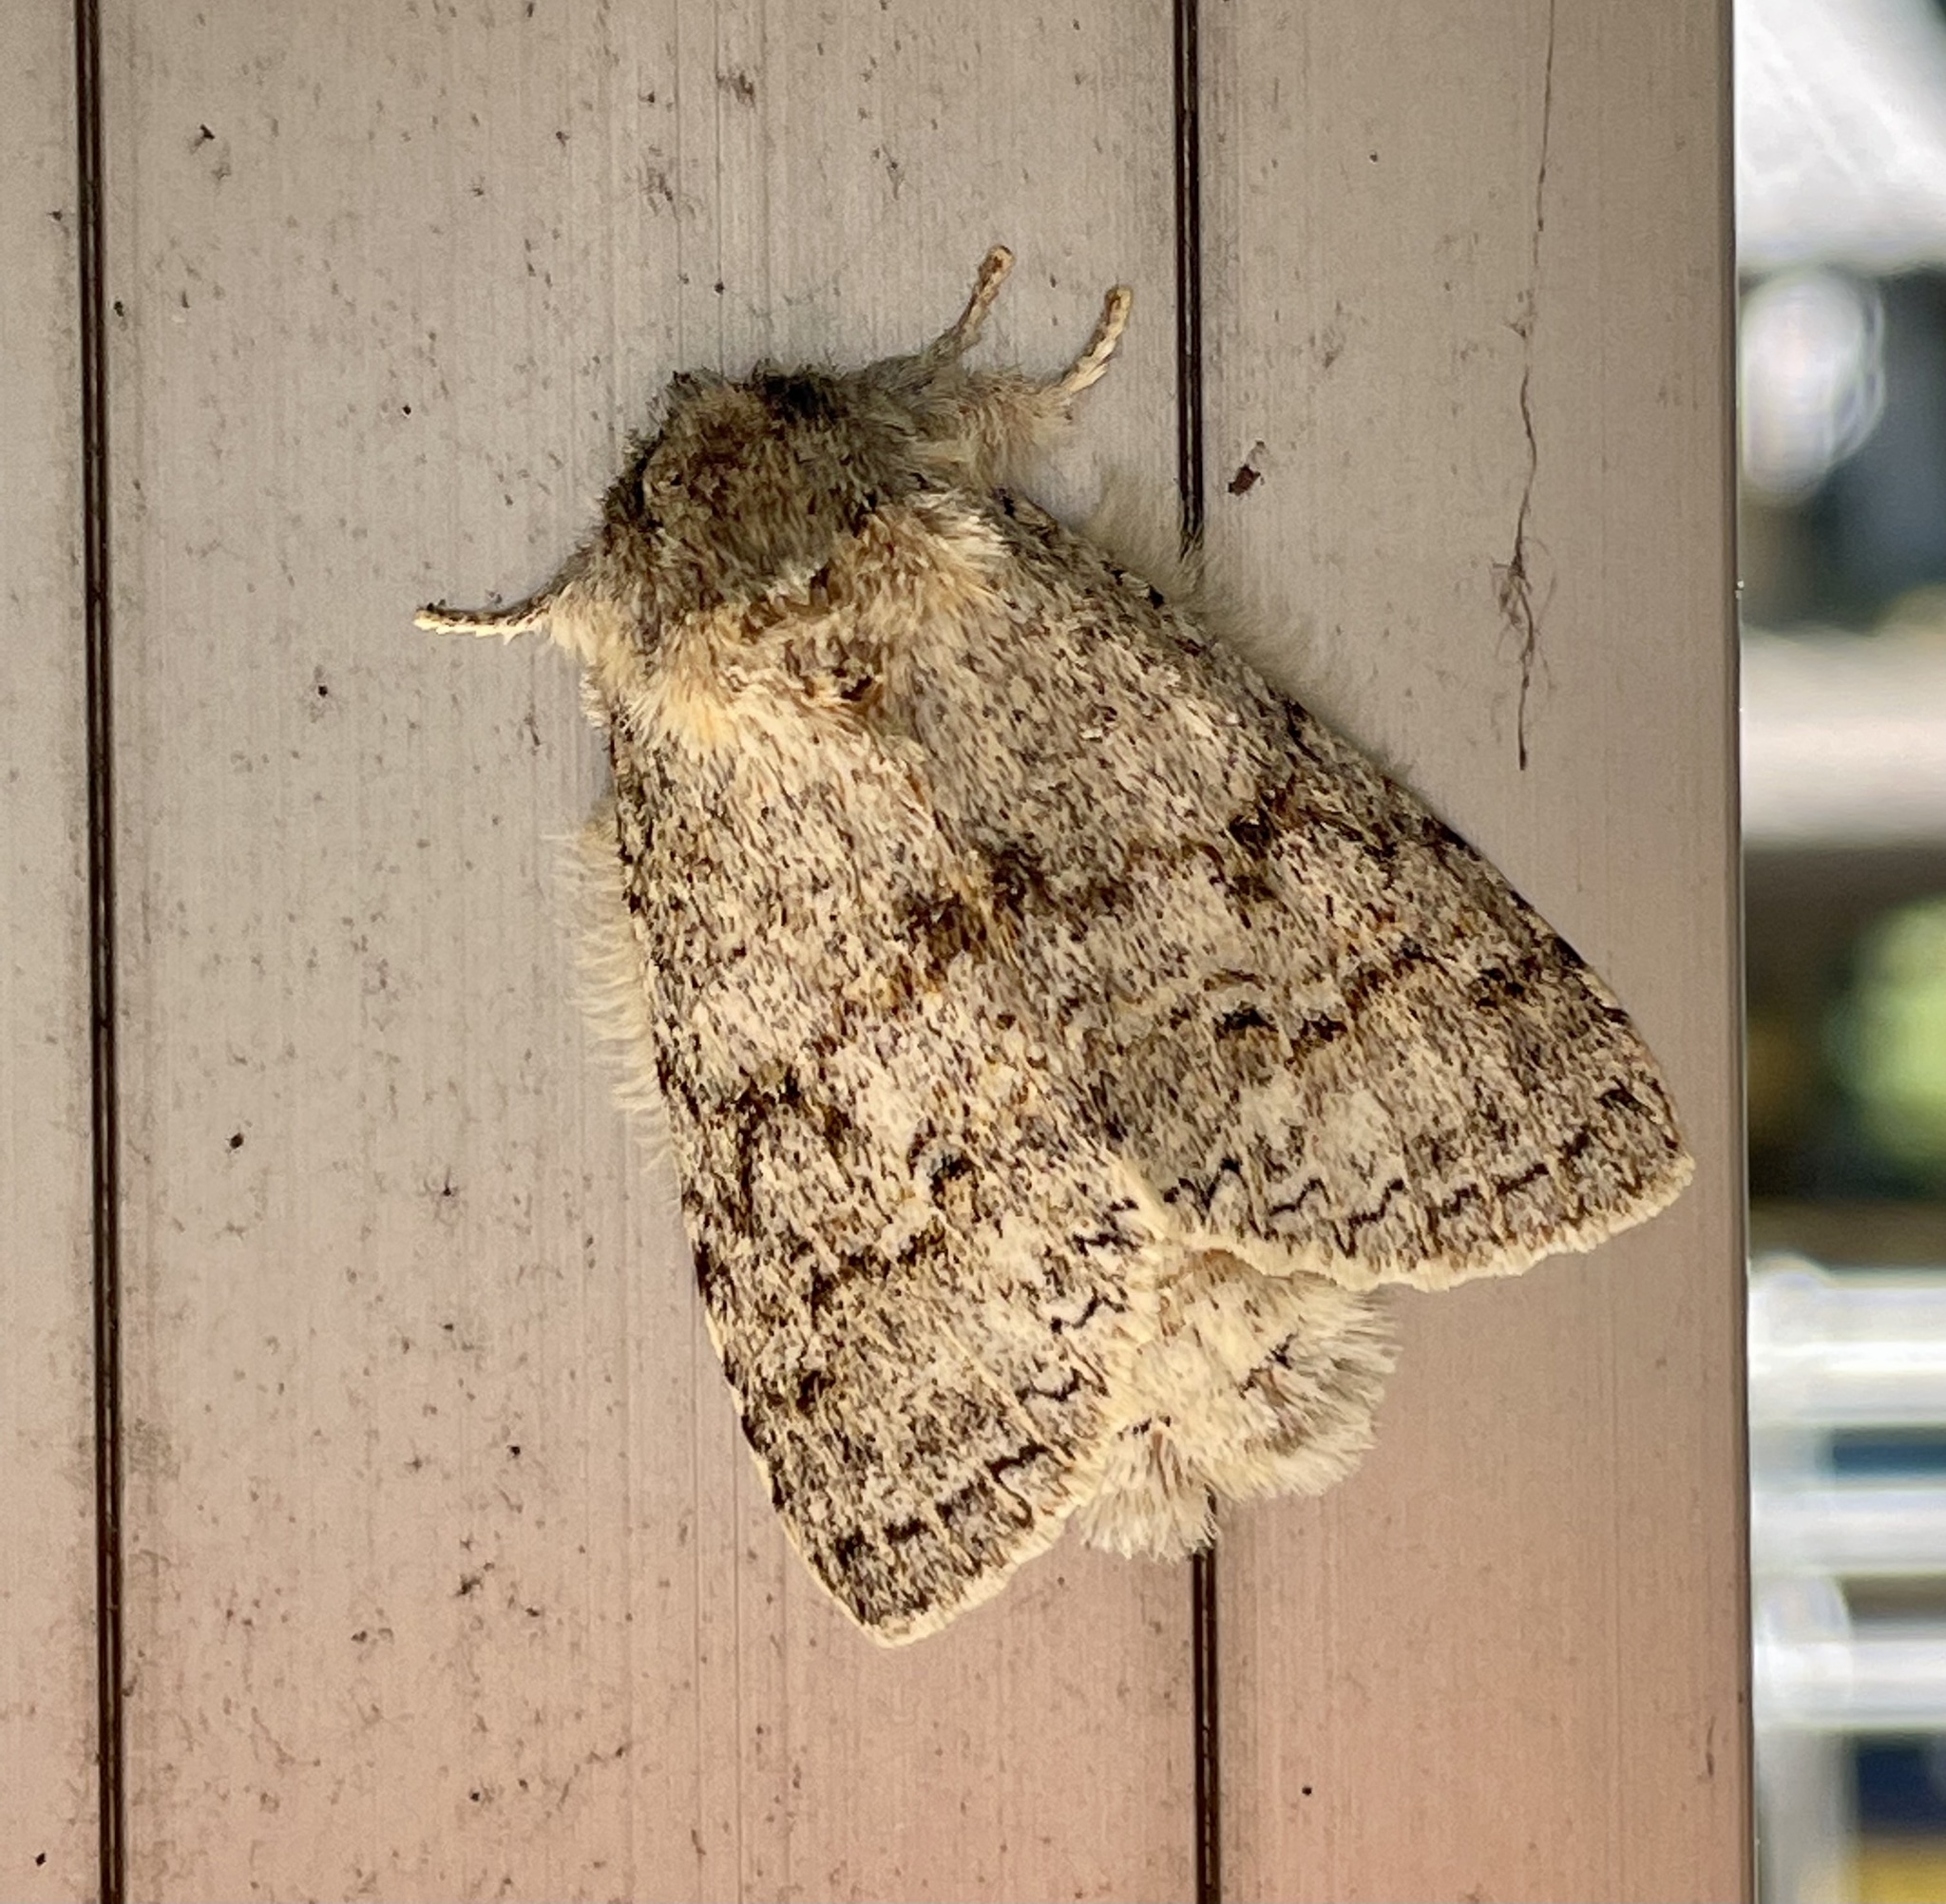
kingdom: Animalia
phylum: Arthropoda
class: Insecta
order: Lepidoptera
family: Notodontidae
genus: Mesophalera
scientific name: Mesophalera sigmata
